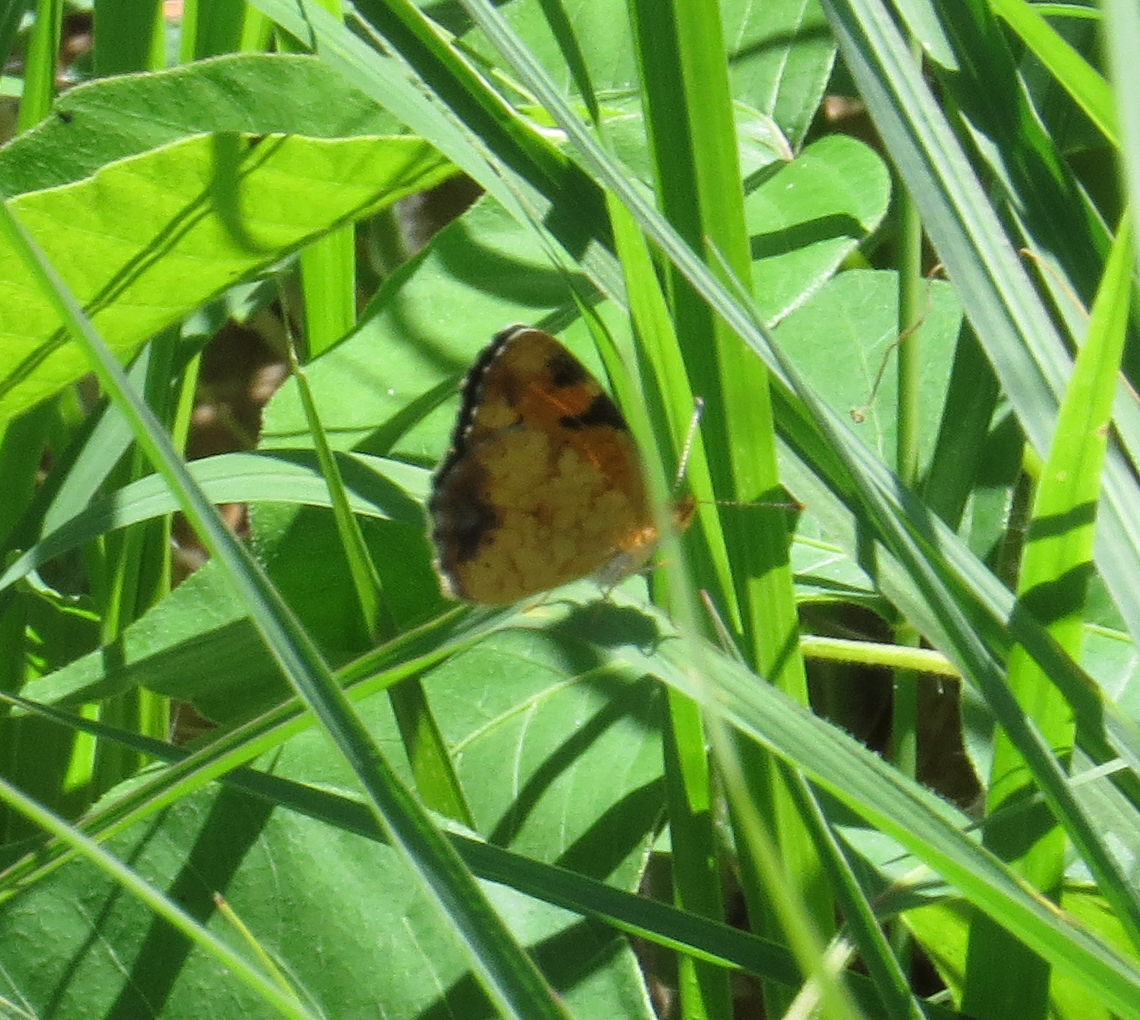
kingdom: Animalia
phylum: Arthropoda
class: Insecta
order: Lepidoptera
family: Nymphalidae
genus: Phyciodes
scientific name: Phyciodes tharos
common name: Pearl crescent
